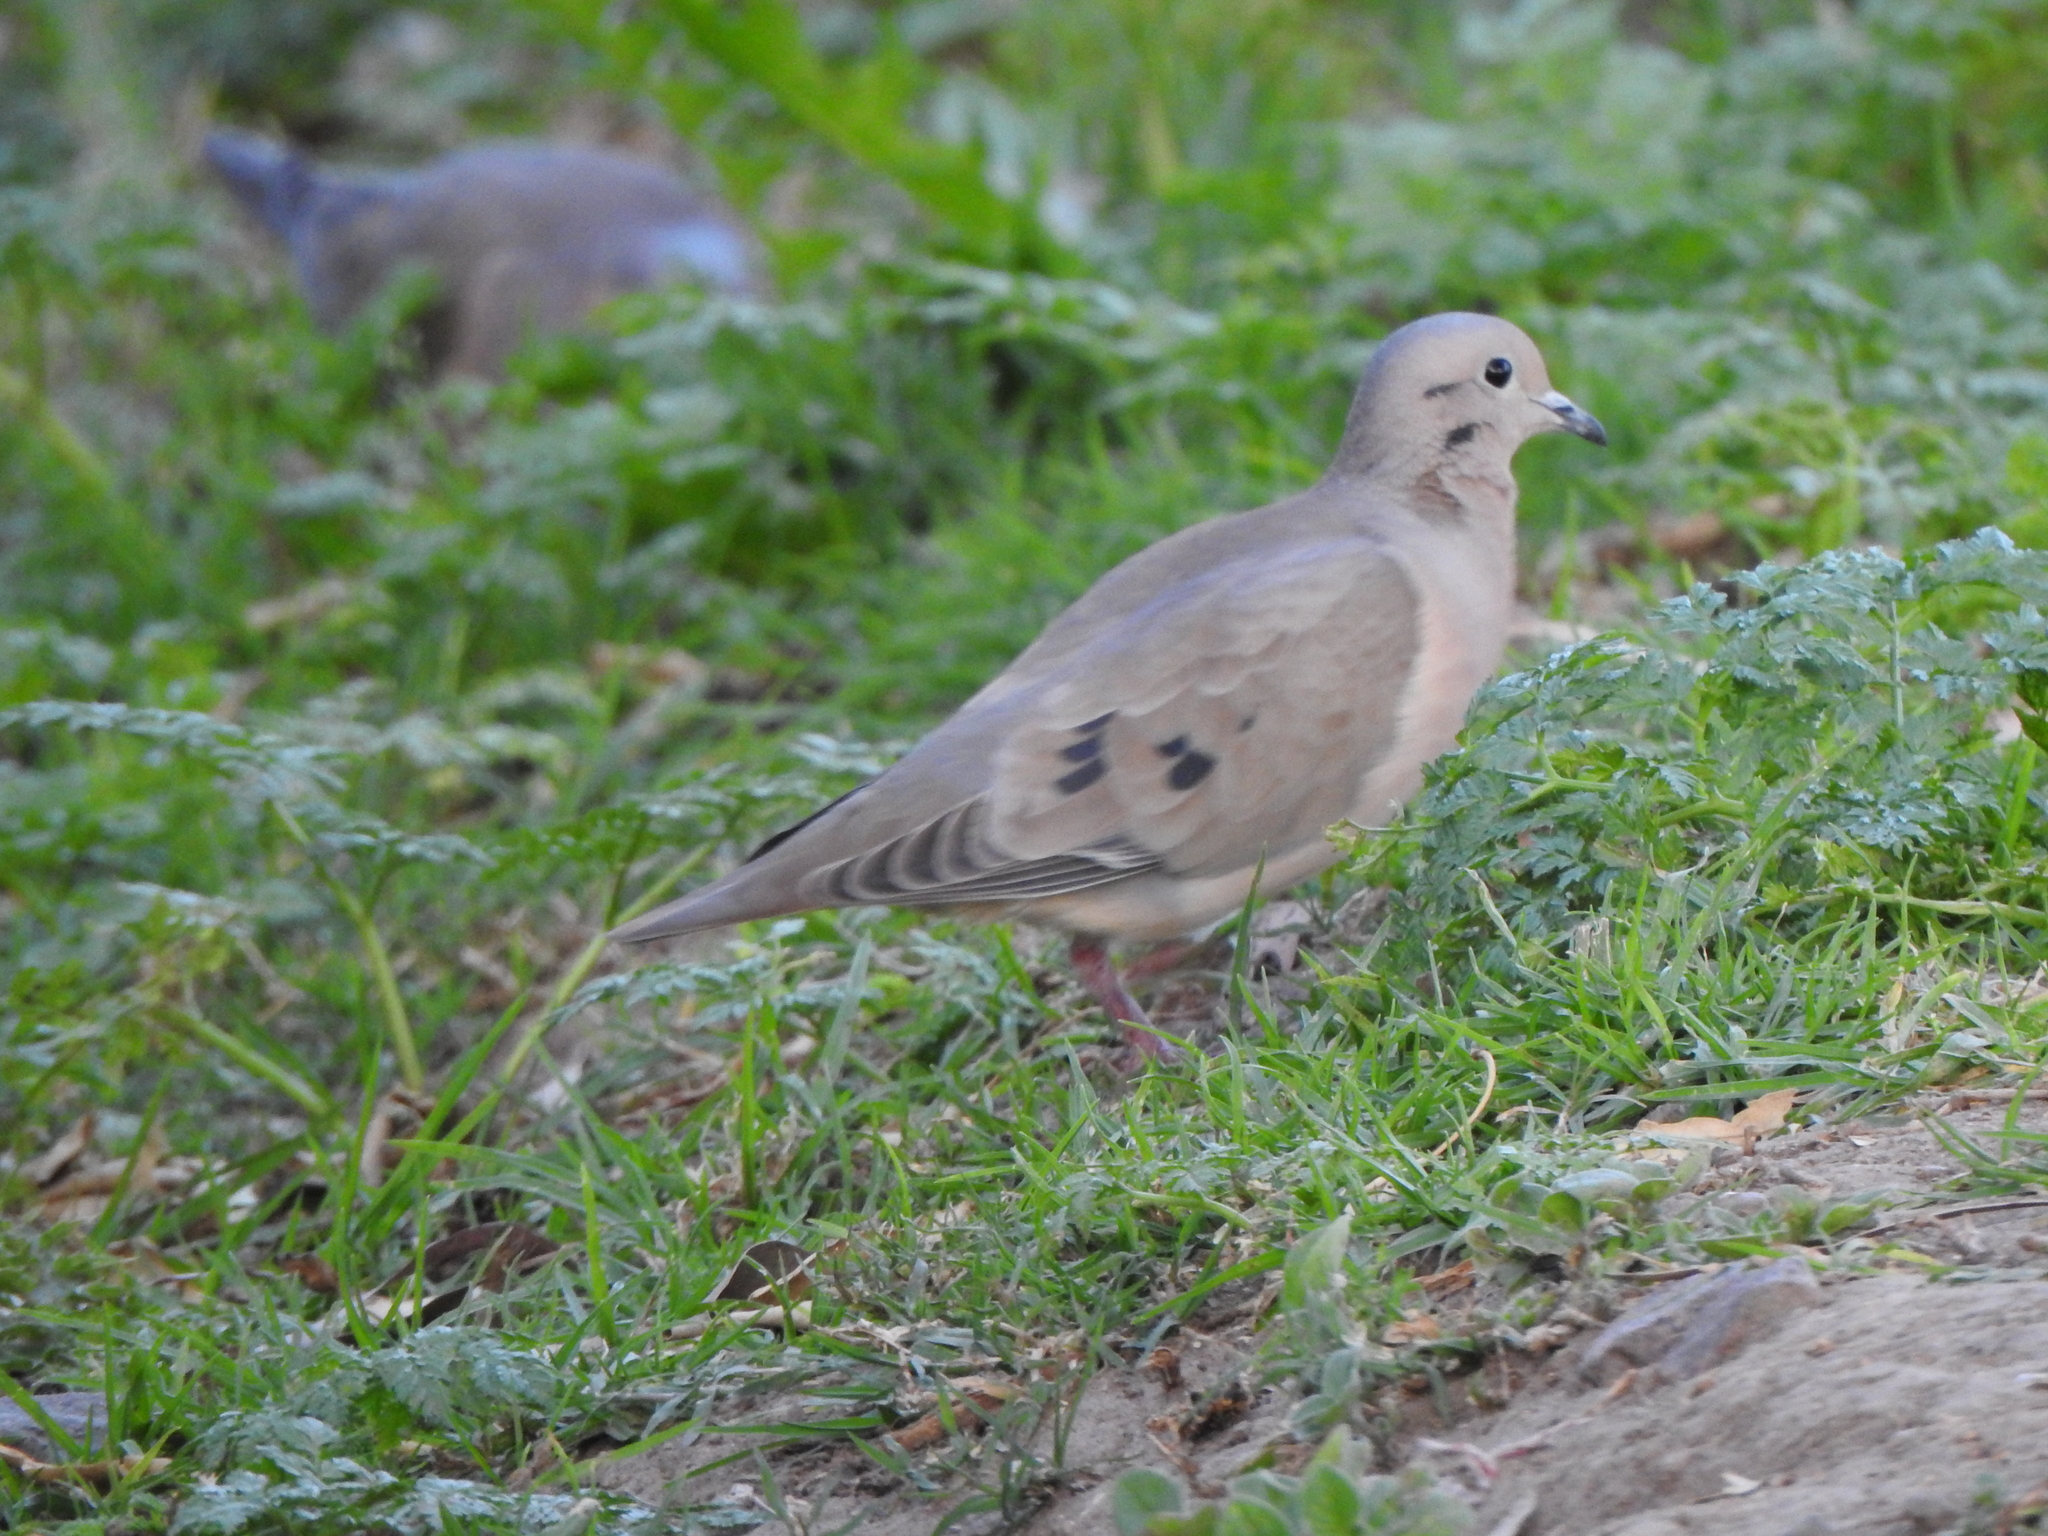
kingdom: Animalia
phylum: Chordata
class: Aves
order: Columbiformes
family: Columbidae
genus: Zenaida
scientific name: Zenaida auriculata
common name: Eared dove
